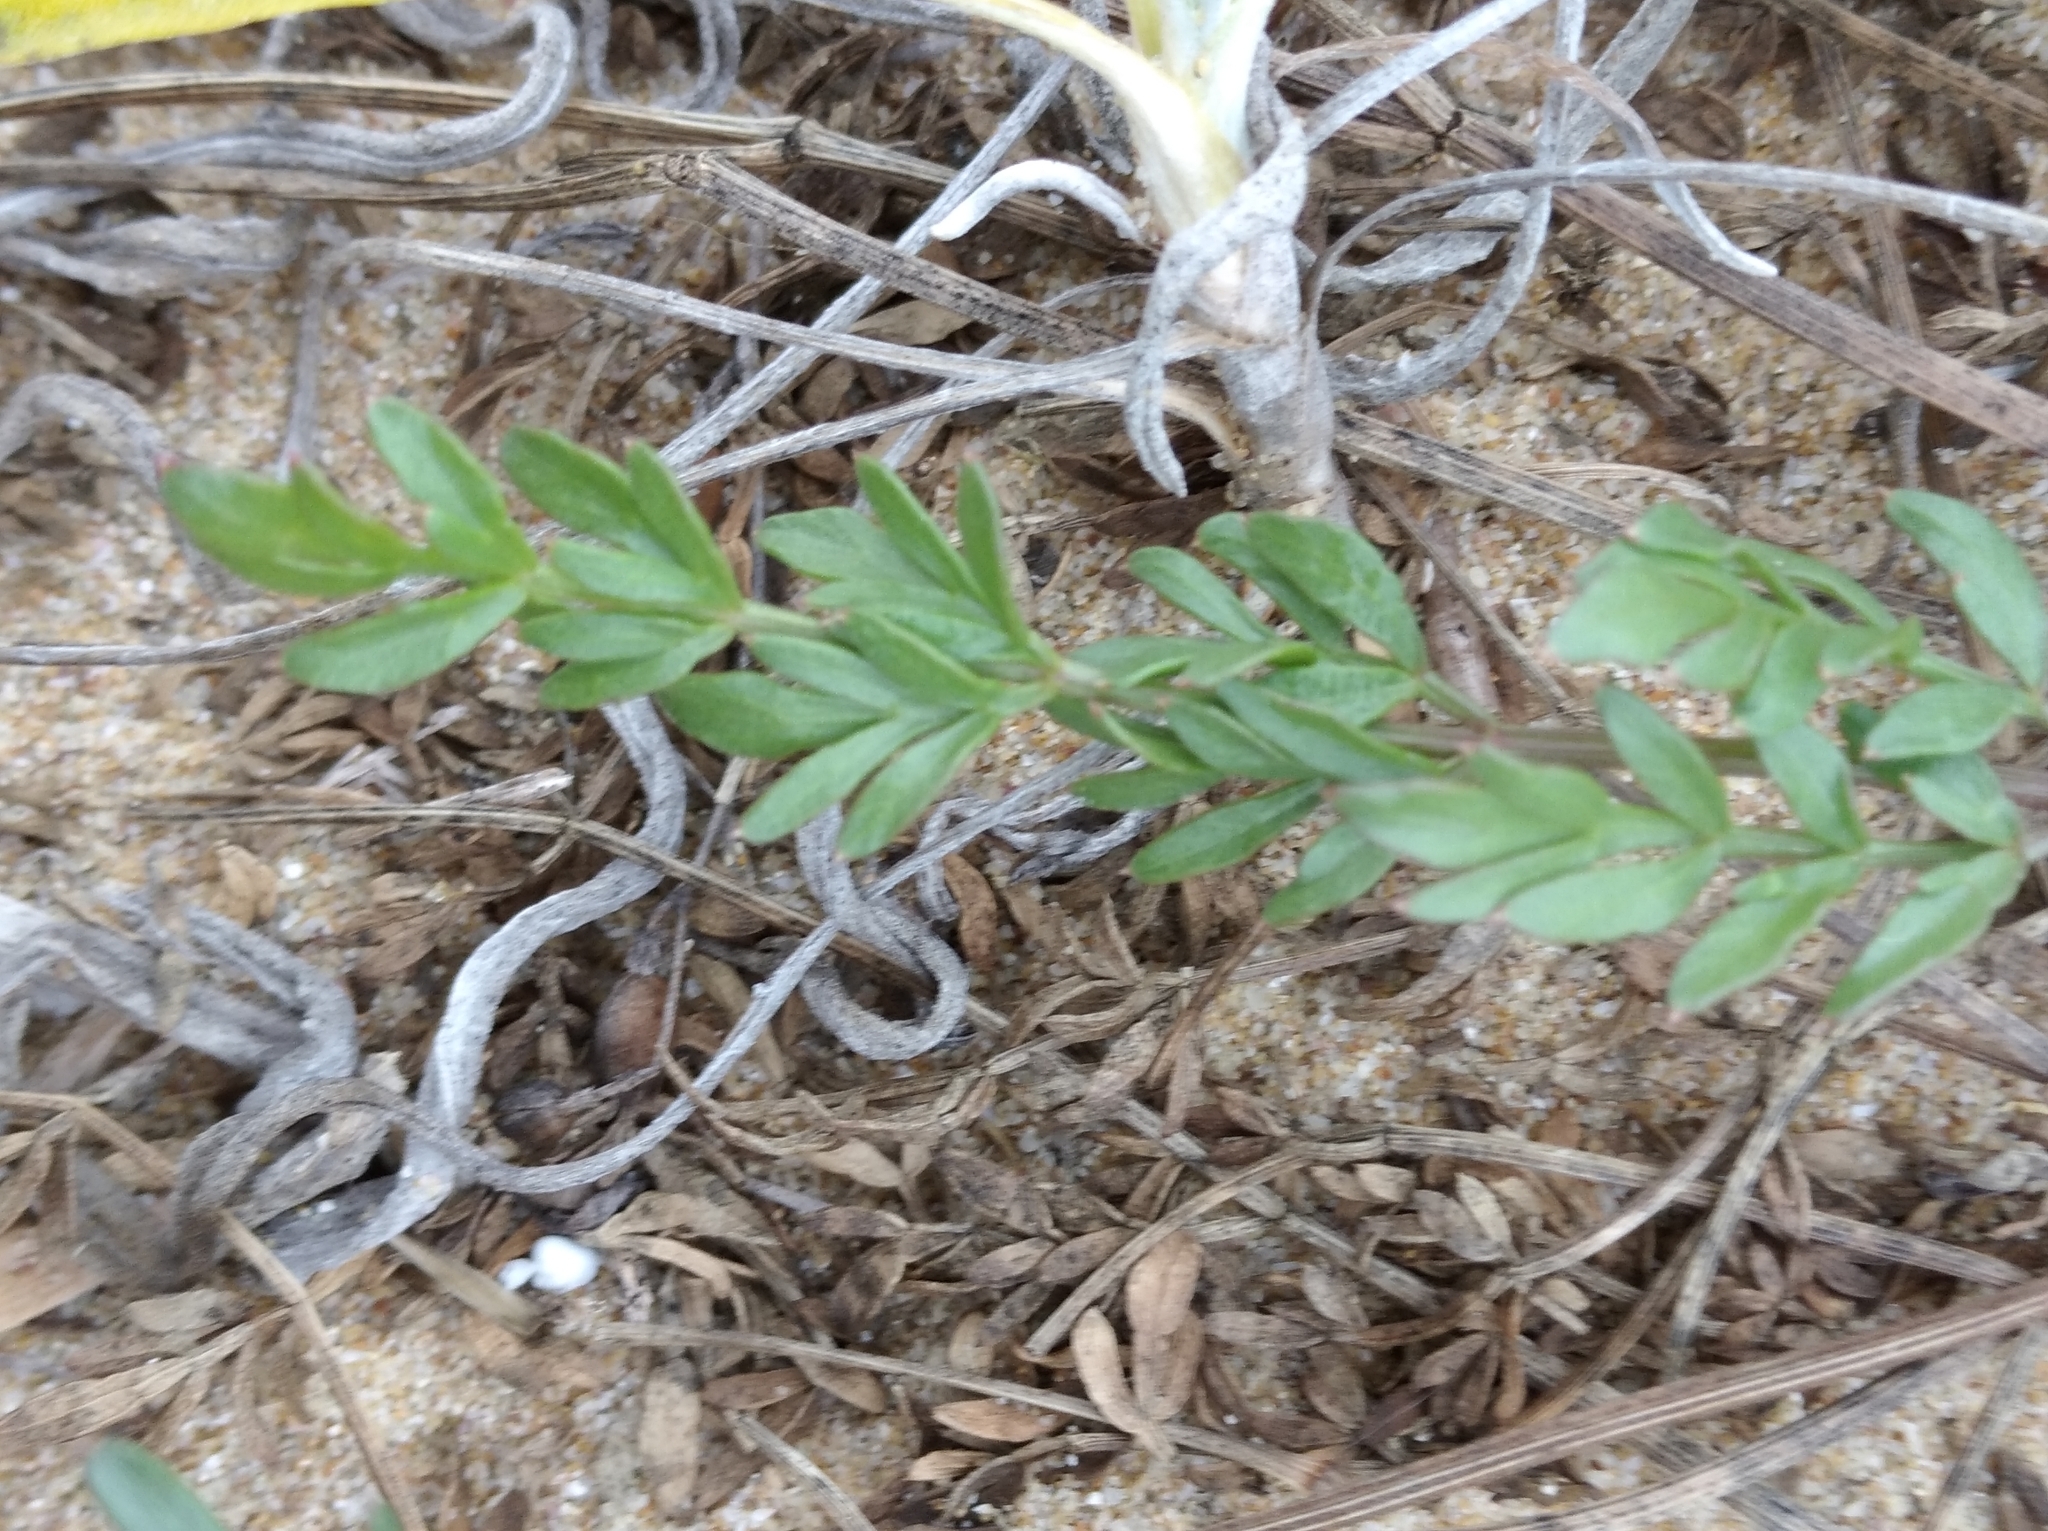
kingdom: Plantae
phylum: Tracheophyta
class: Magnoliopsida
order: Apiales
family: Apiaceae
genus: Crithmum
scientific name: Crithmum maritimum
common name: Rock samphire
